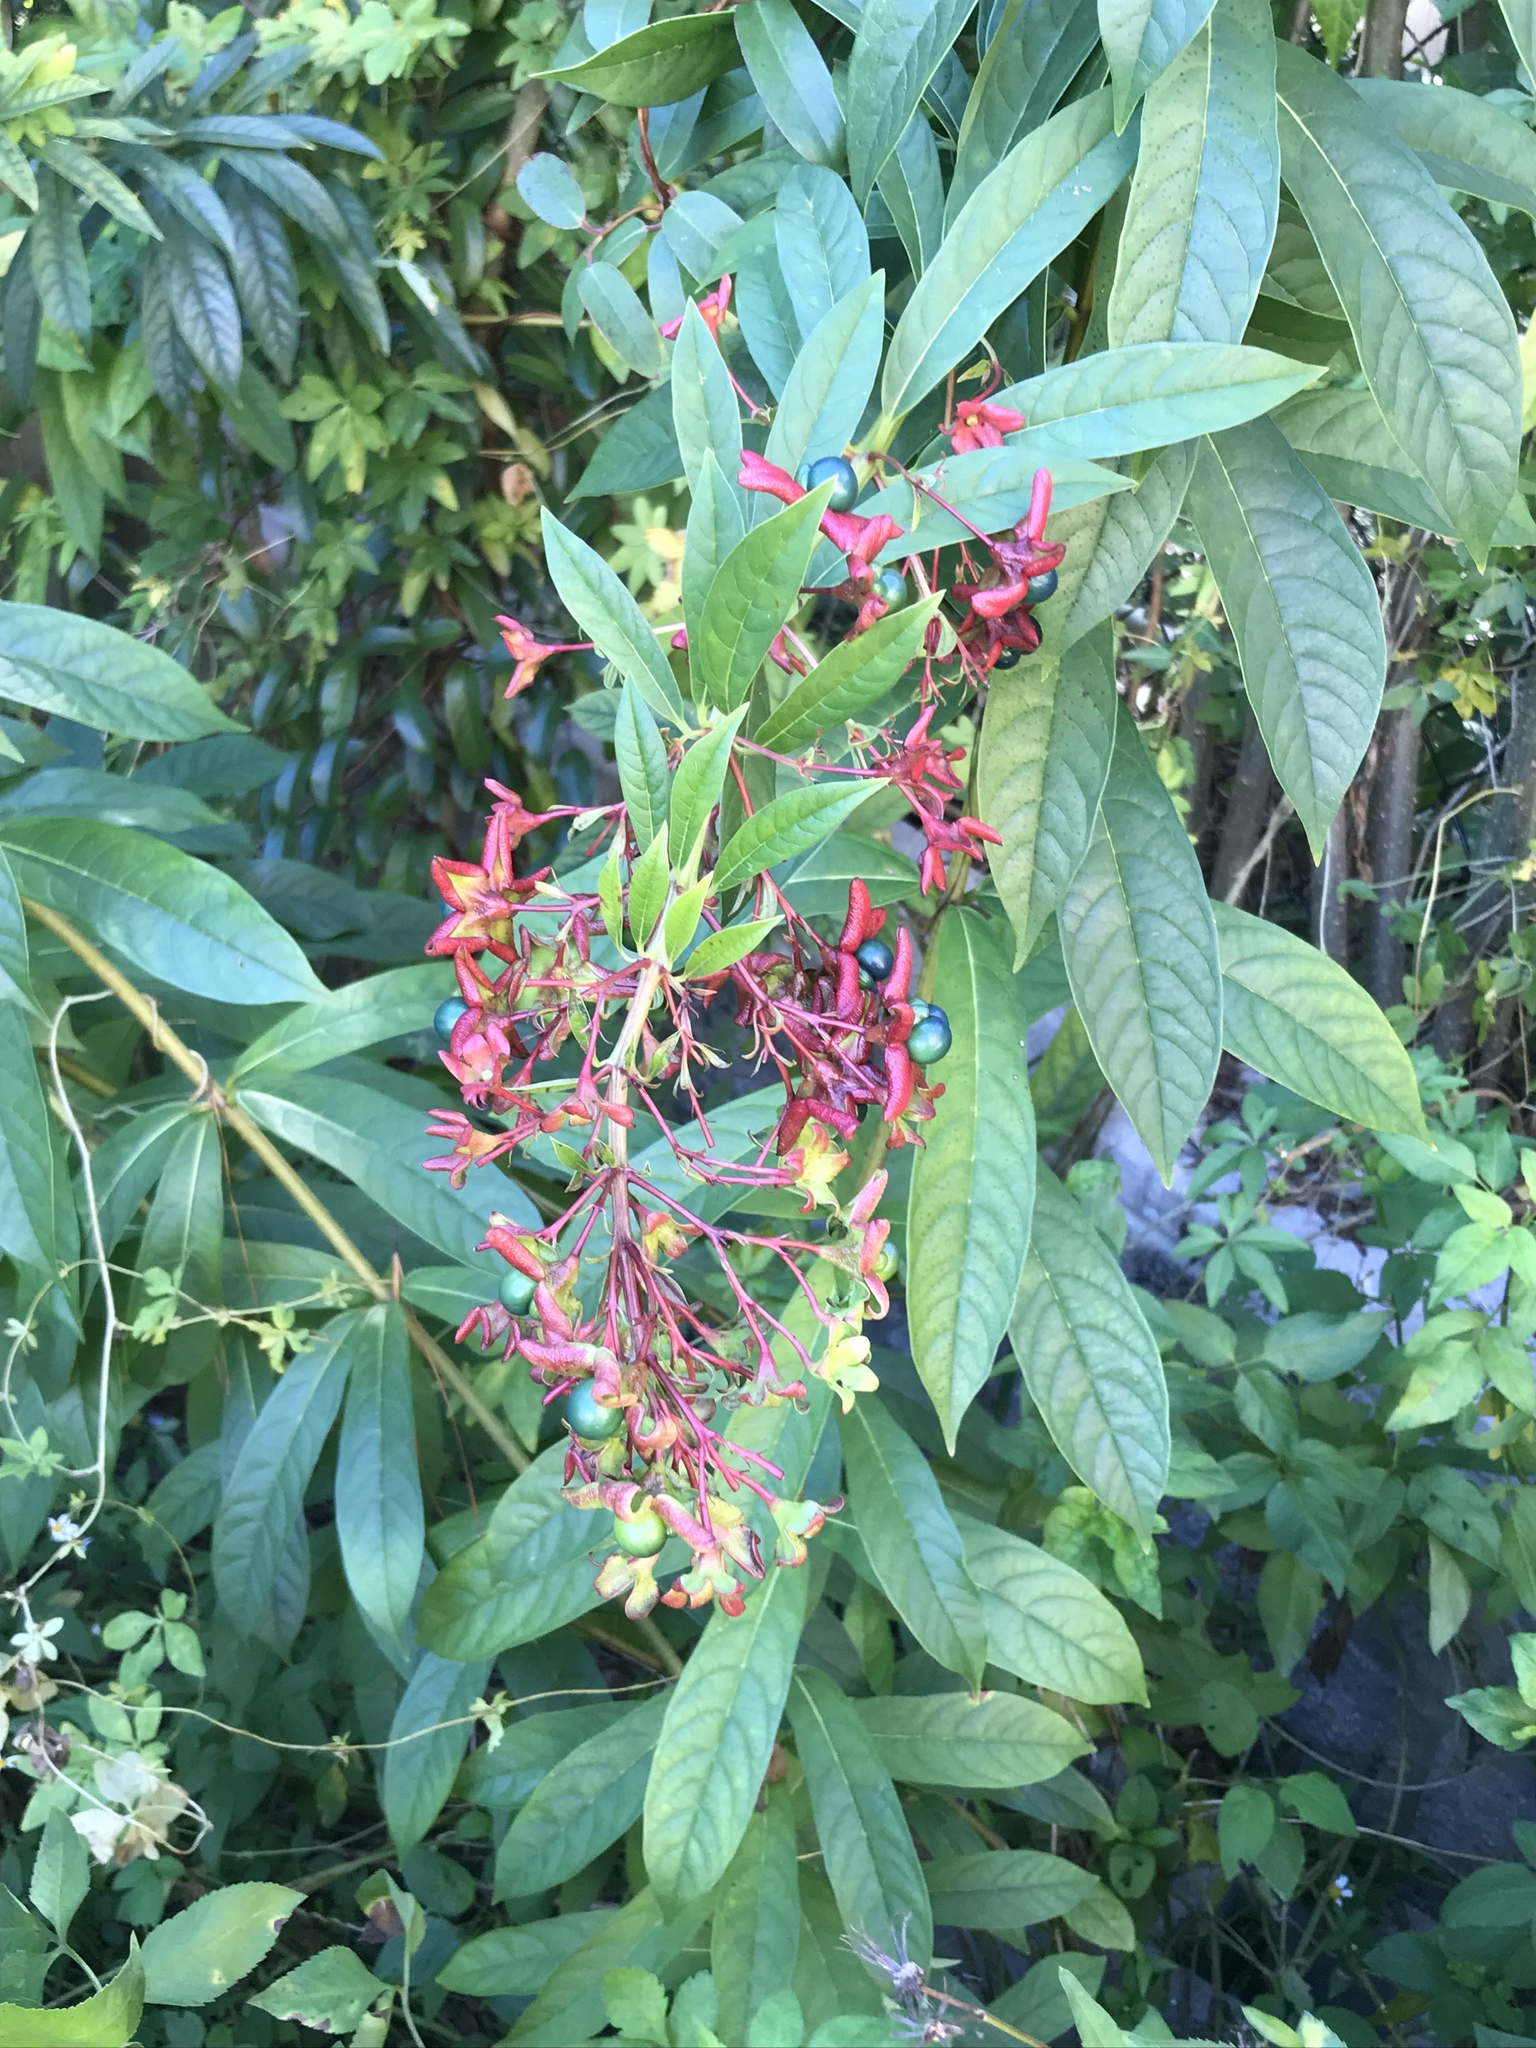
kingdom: Plantae
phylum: Tracheophyta
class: Magnoliopsida
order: Lamiales
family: Lamiaceae
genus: Clerodendrum
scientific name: Clerodendrum indicum
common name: Turk's turbin
